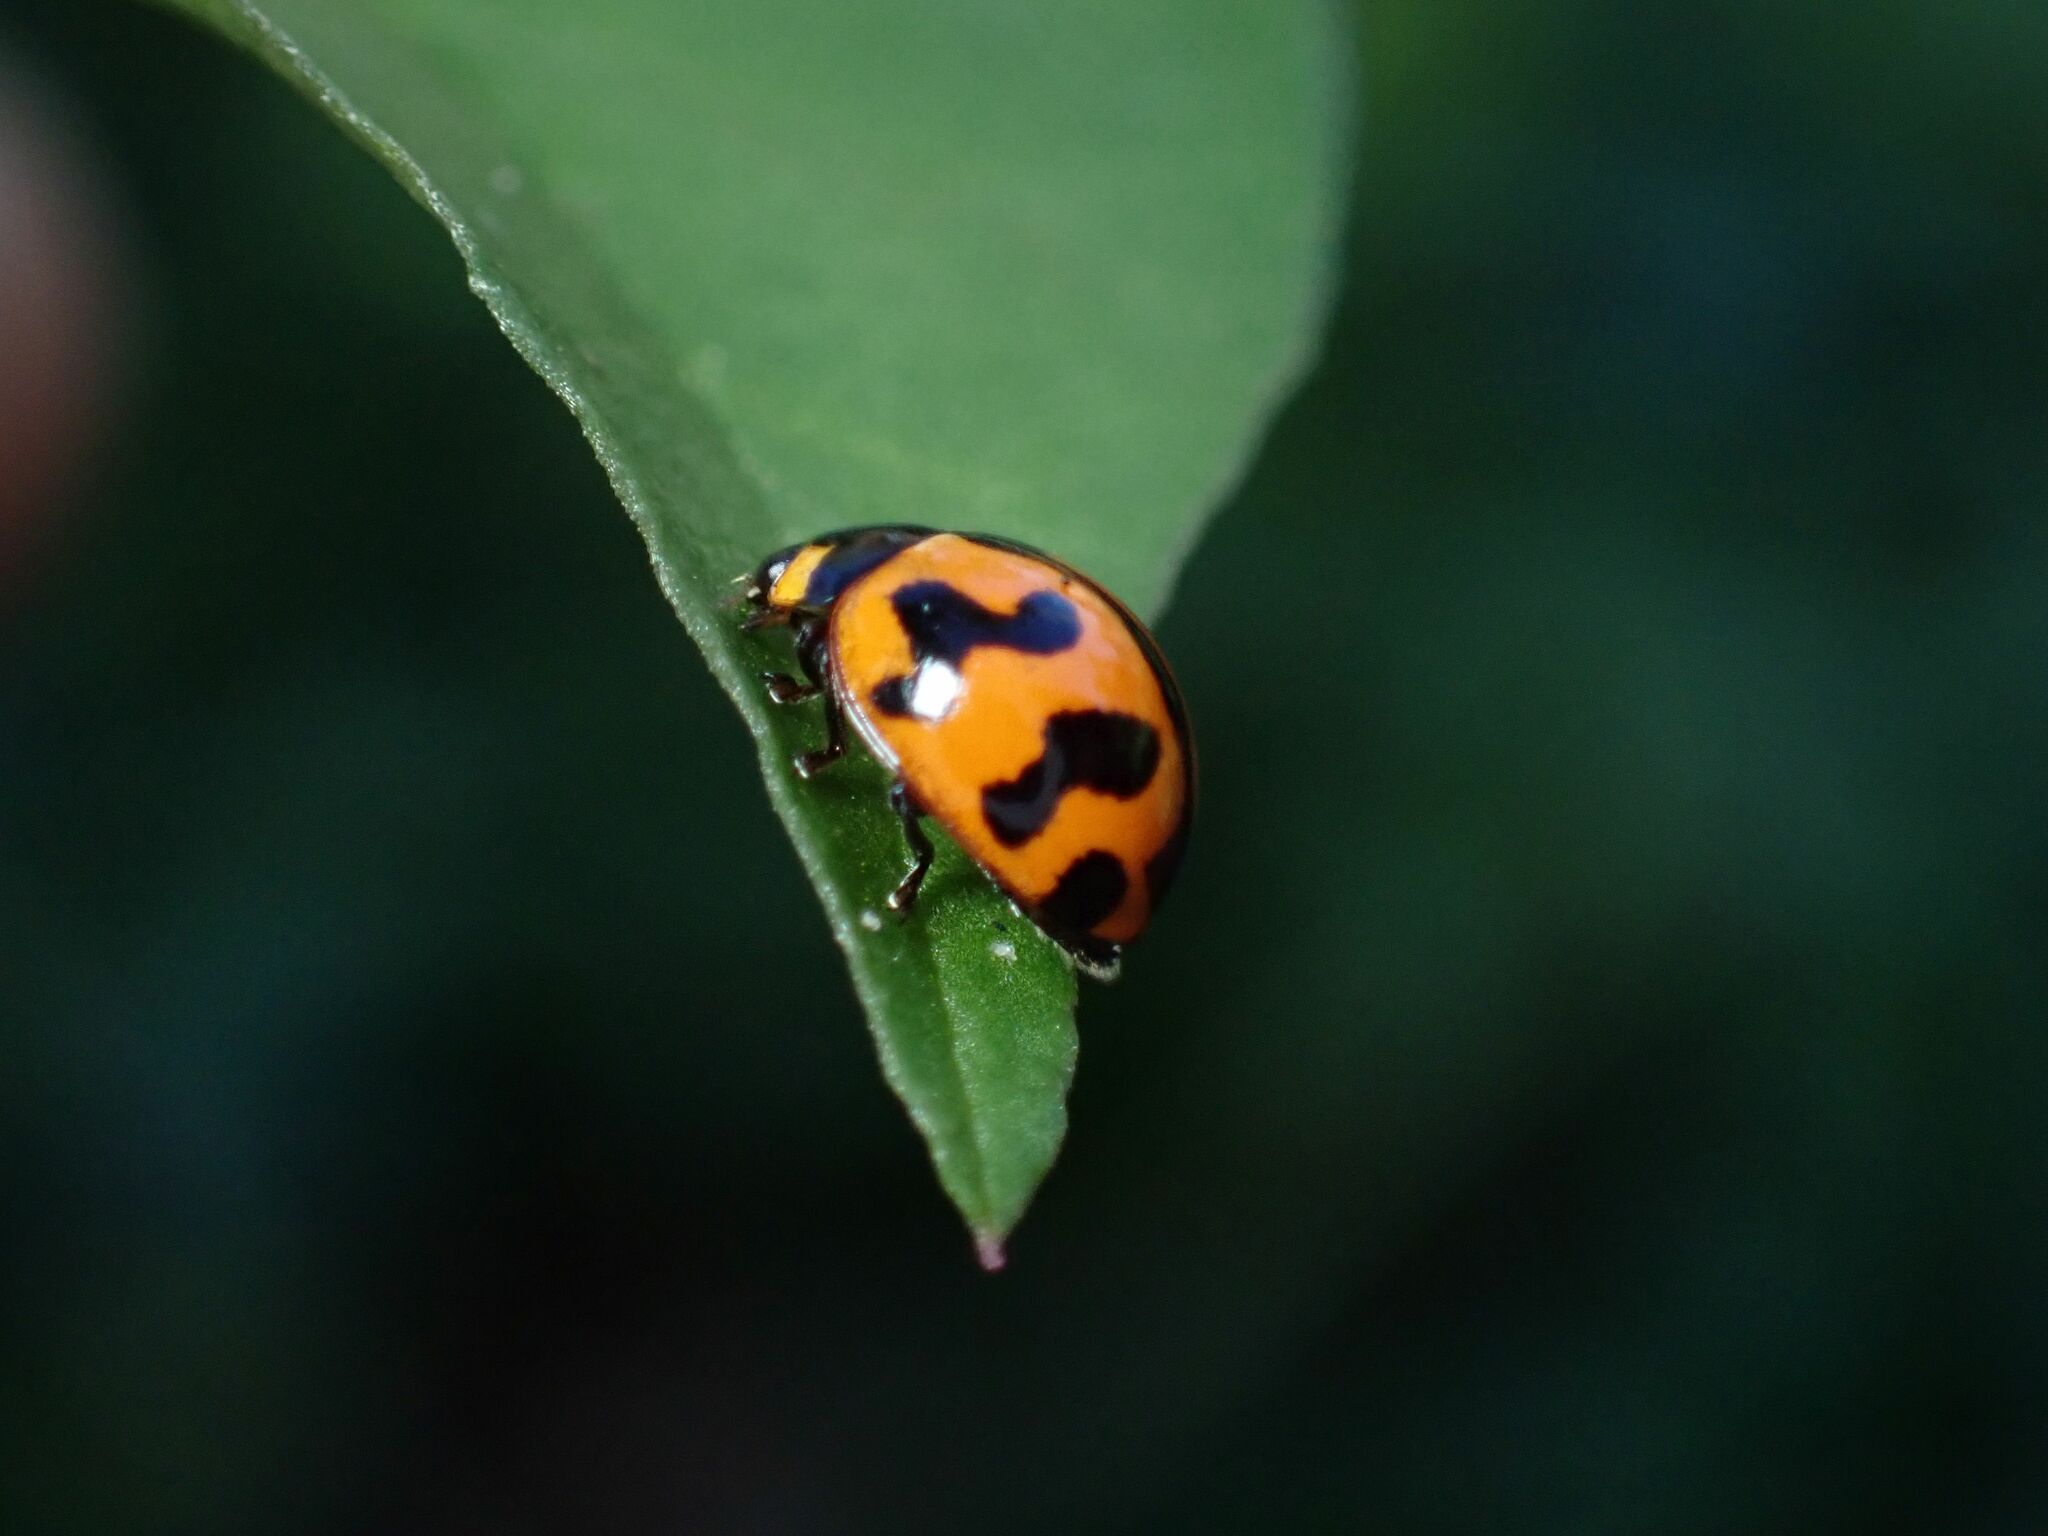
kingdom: Animalia
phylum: Arthropoda
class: Insecta
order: Coleoptera
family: Coccinellidae
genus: Coccinella
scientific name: Coccinella transversalis
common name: Transverse lady beetle
